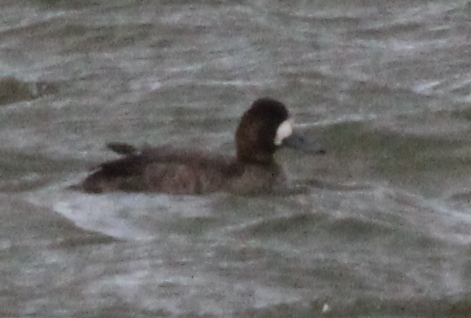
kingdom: Animalia
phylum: Chordata
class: Aves
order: Anseriformes
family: Anatidae
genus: Aythya
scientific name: Aythya affinis
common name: Lesser scaup
